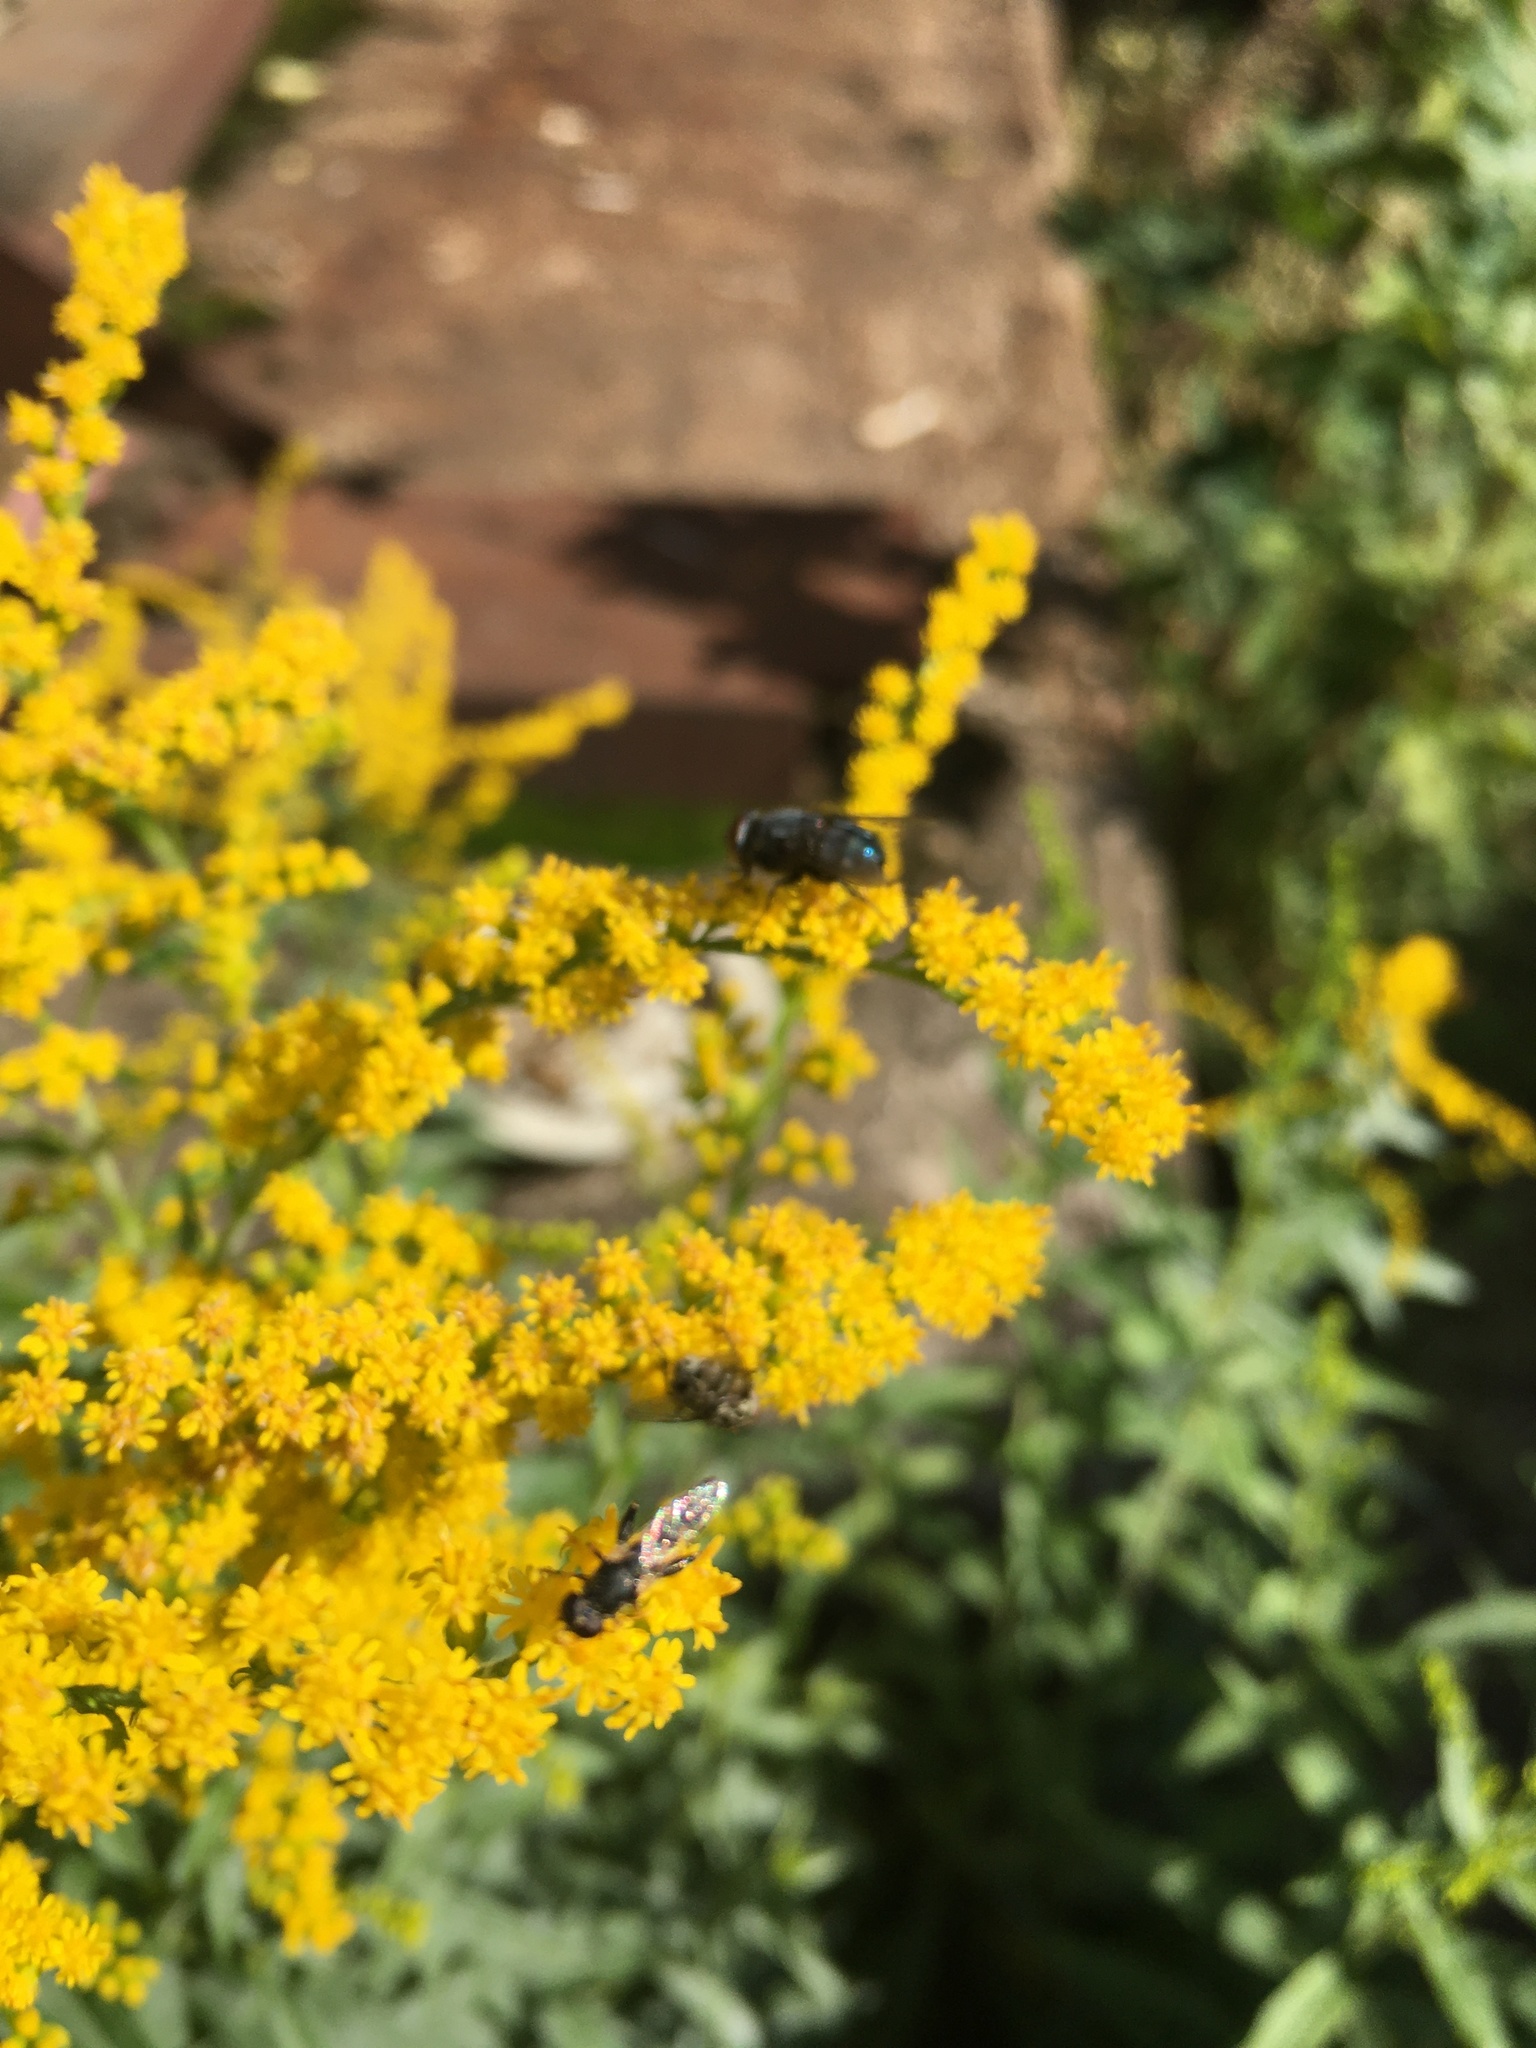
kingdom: Animalia
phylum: Arthropoda
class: Insecta
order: Diptera
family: Syrphidae
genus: Syritta
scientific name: Syritta pipiens
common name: Hover fly
